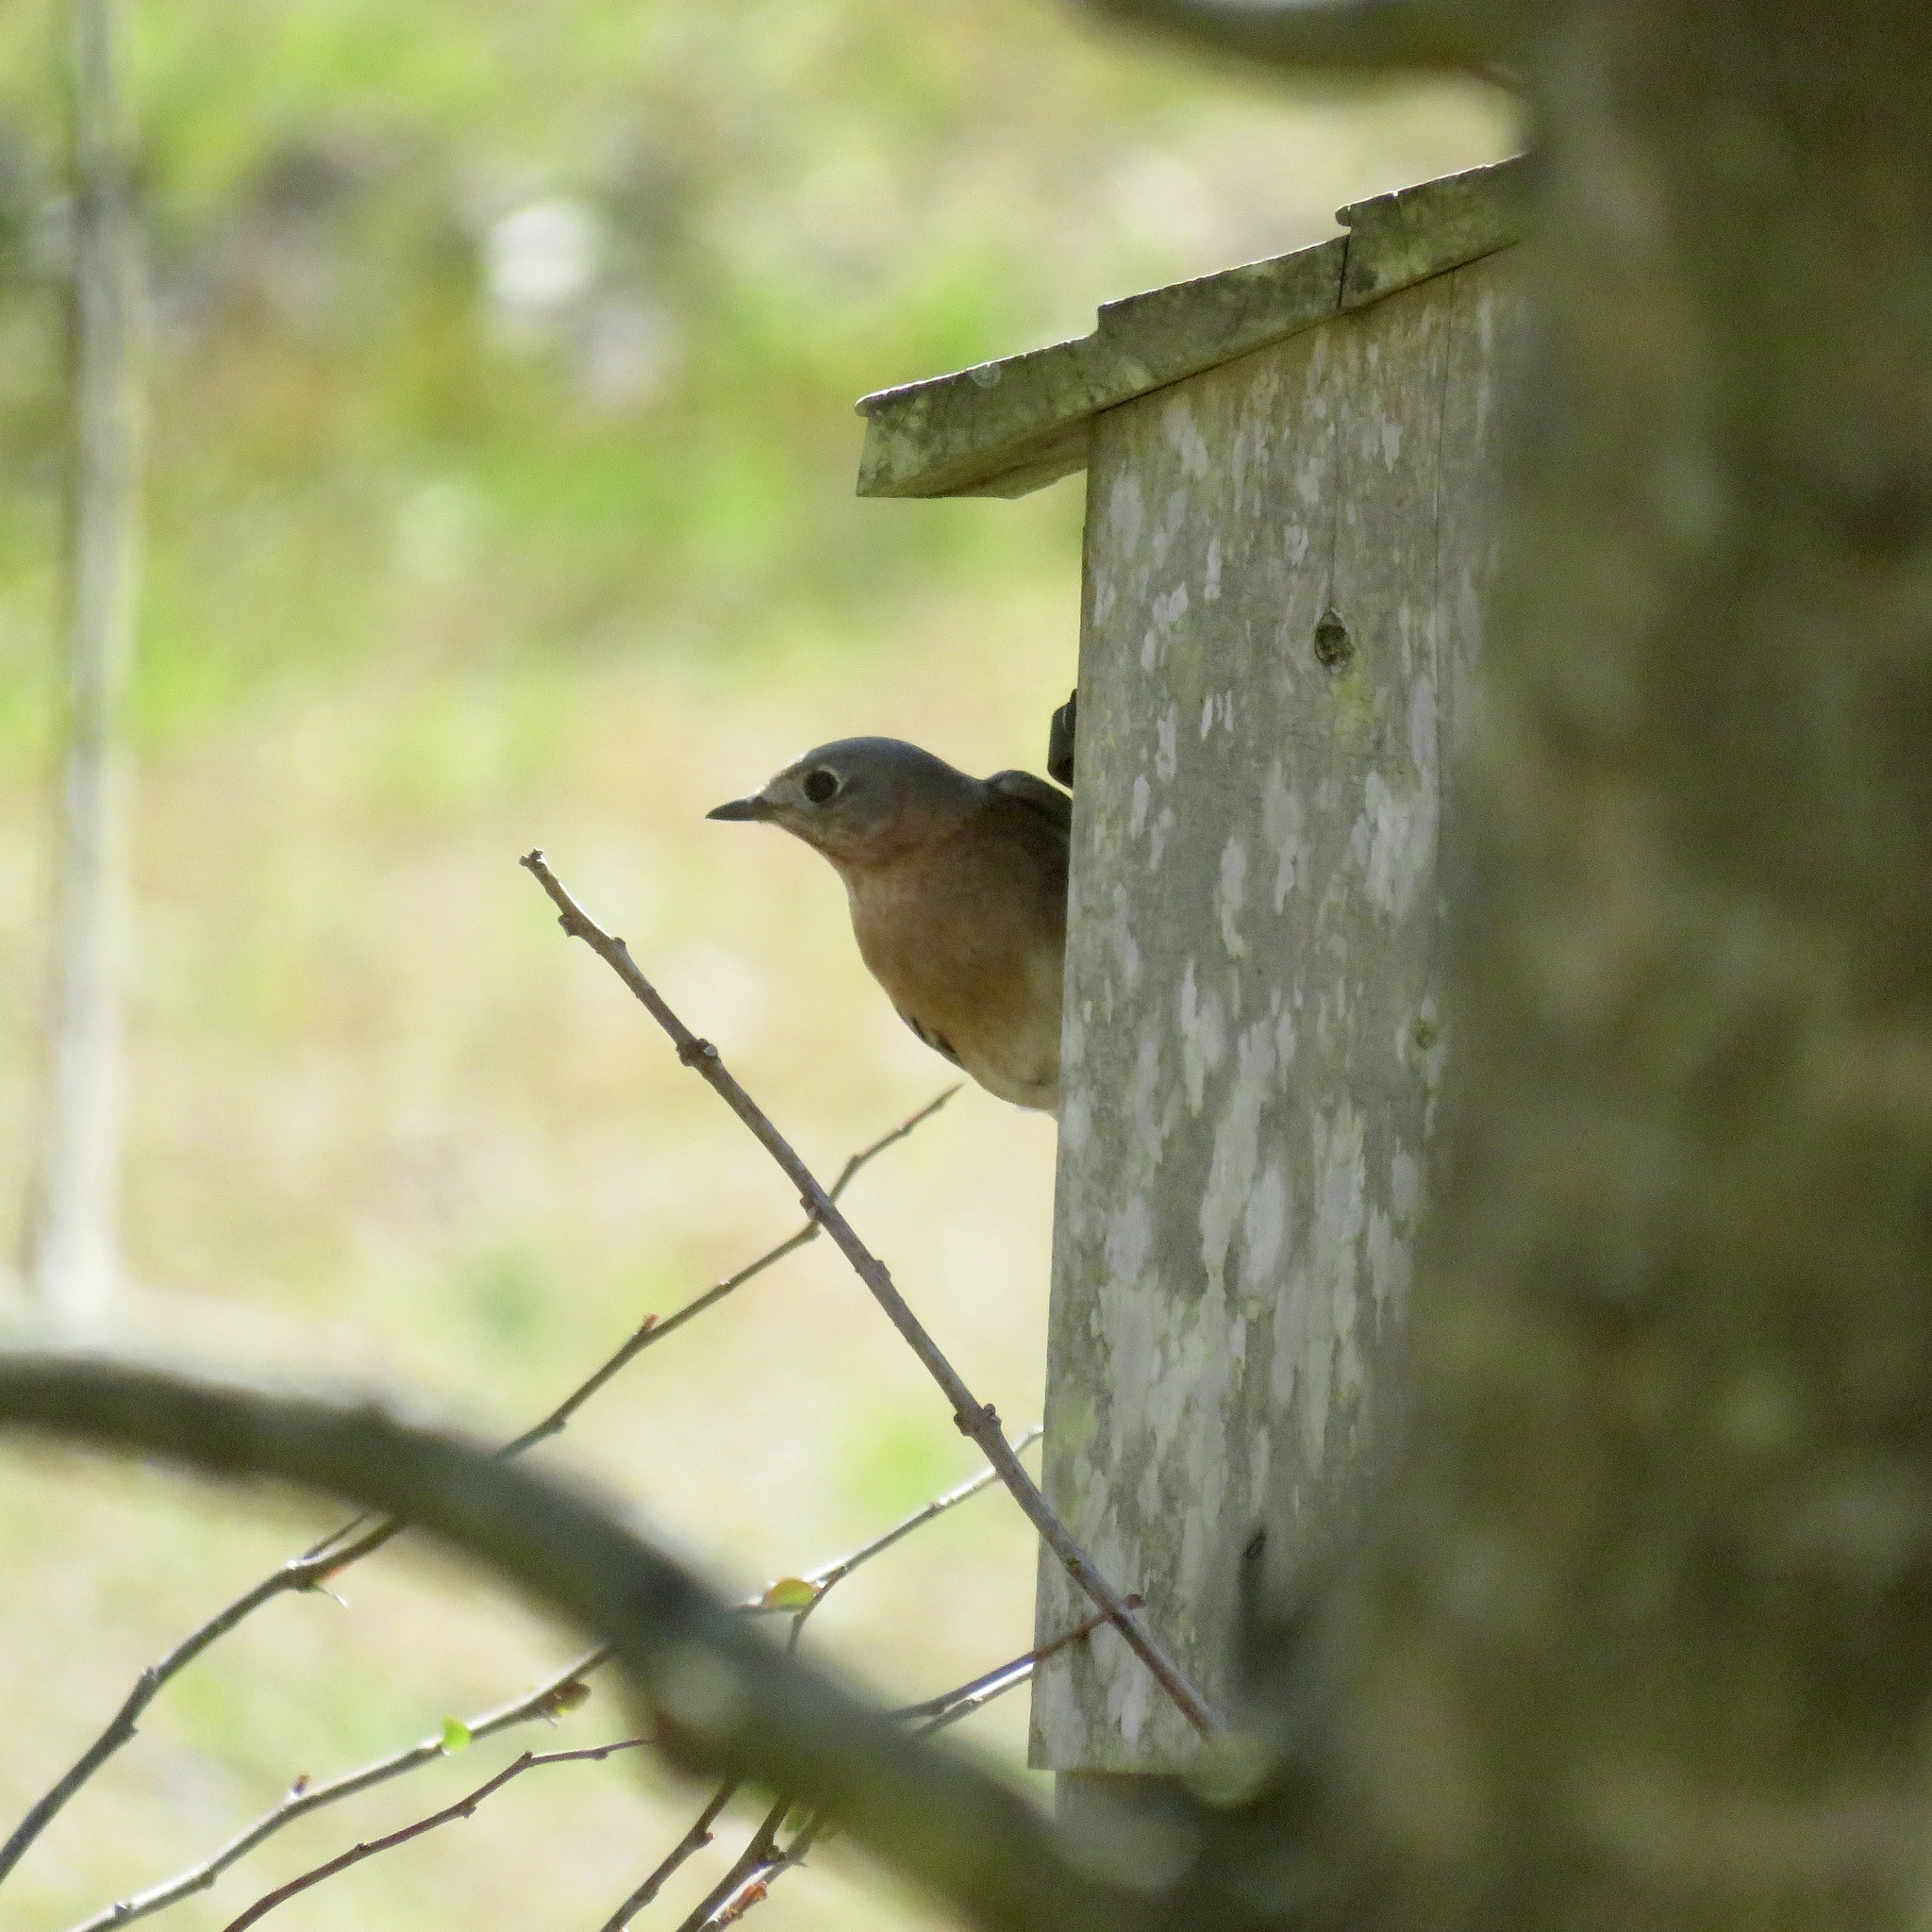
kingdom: Animalia
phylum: Chordata
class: Aves
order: Passeriformes
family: Turdidae
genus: Sialia
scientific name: Sialia sialis
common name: Eastern bluebird
